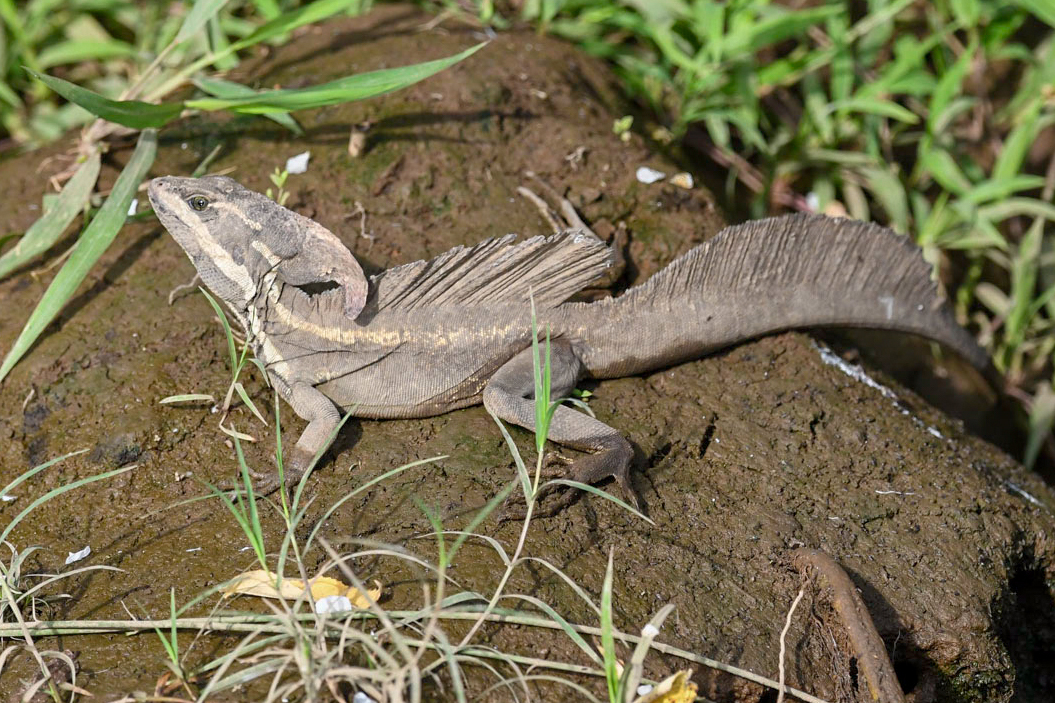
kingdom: Animalia
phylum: Chordata
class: Squamata
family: Corytophanidae
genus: Basiliscus
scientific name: Basiliscus basiliscus
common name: Common basilisk
